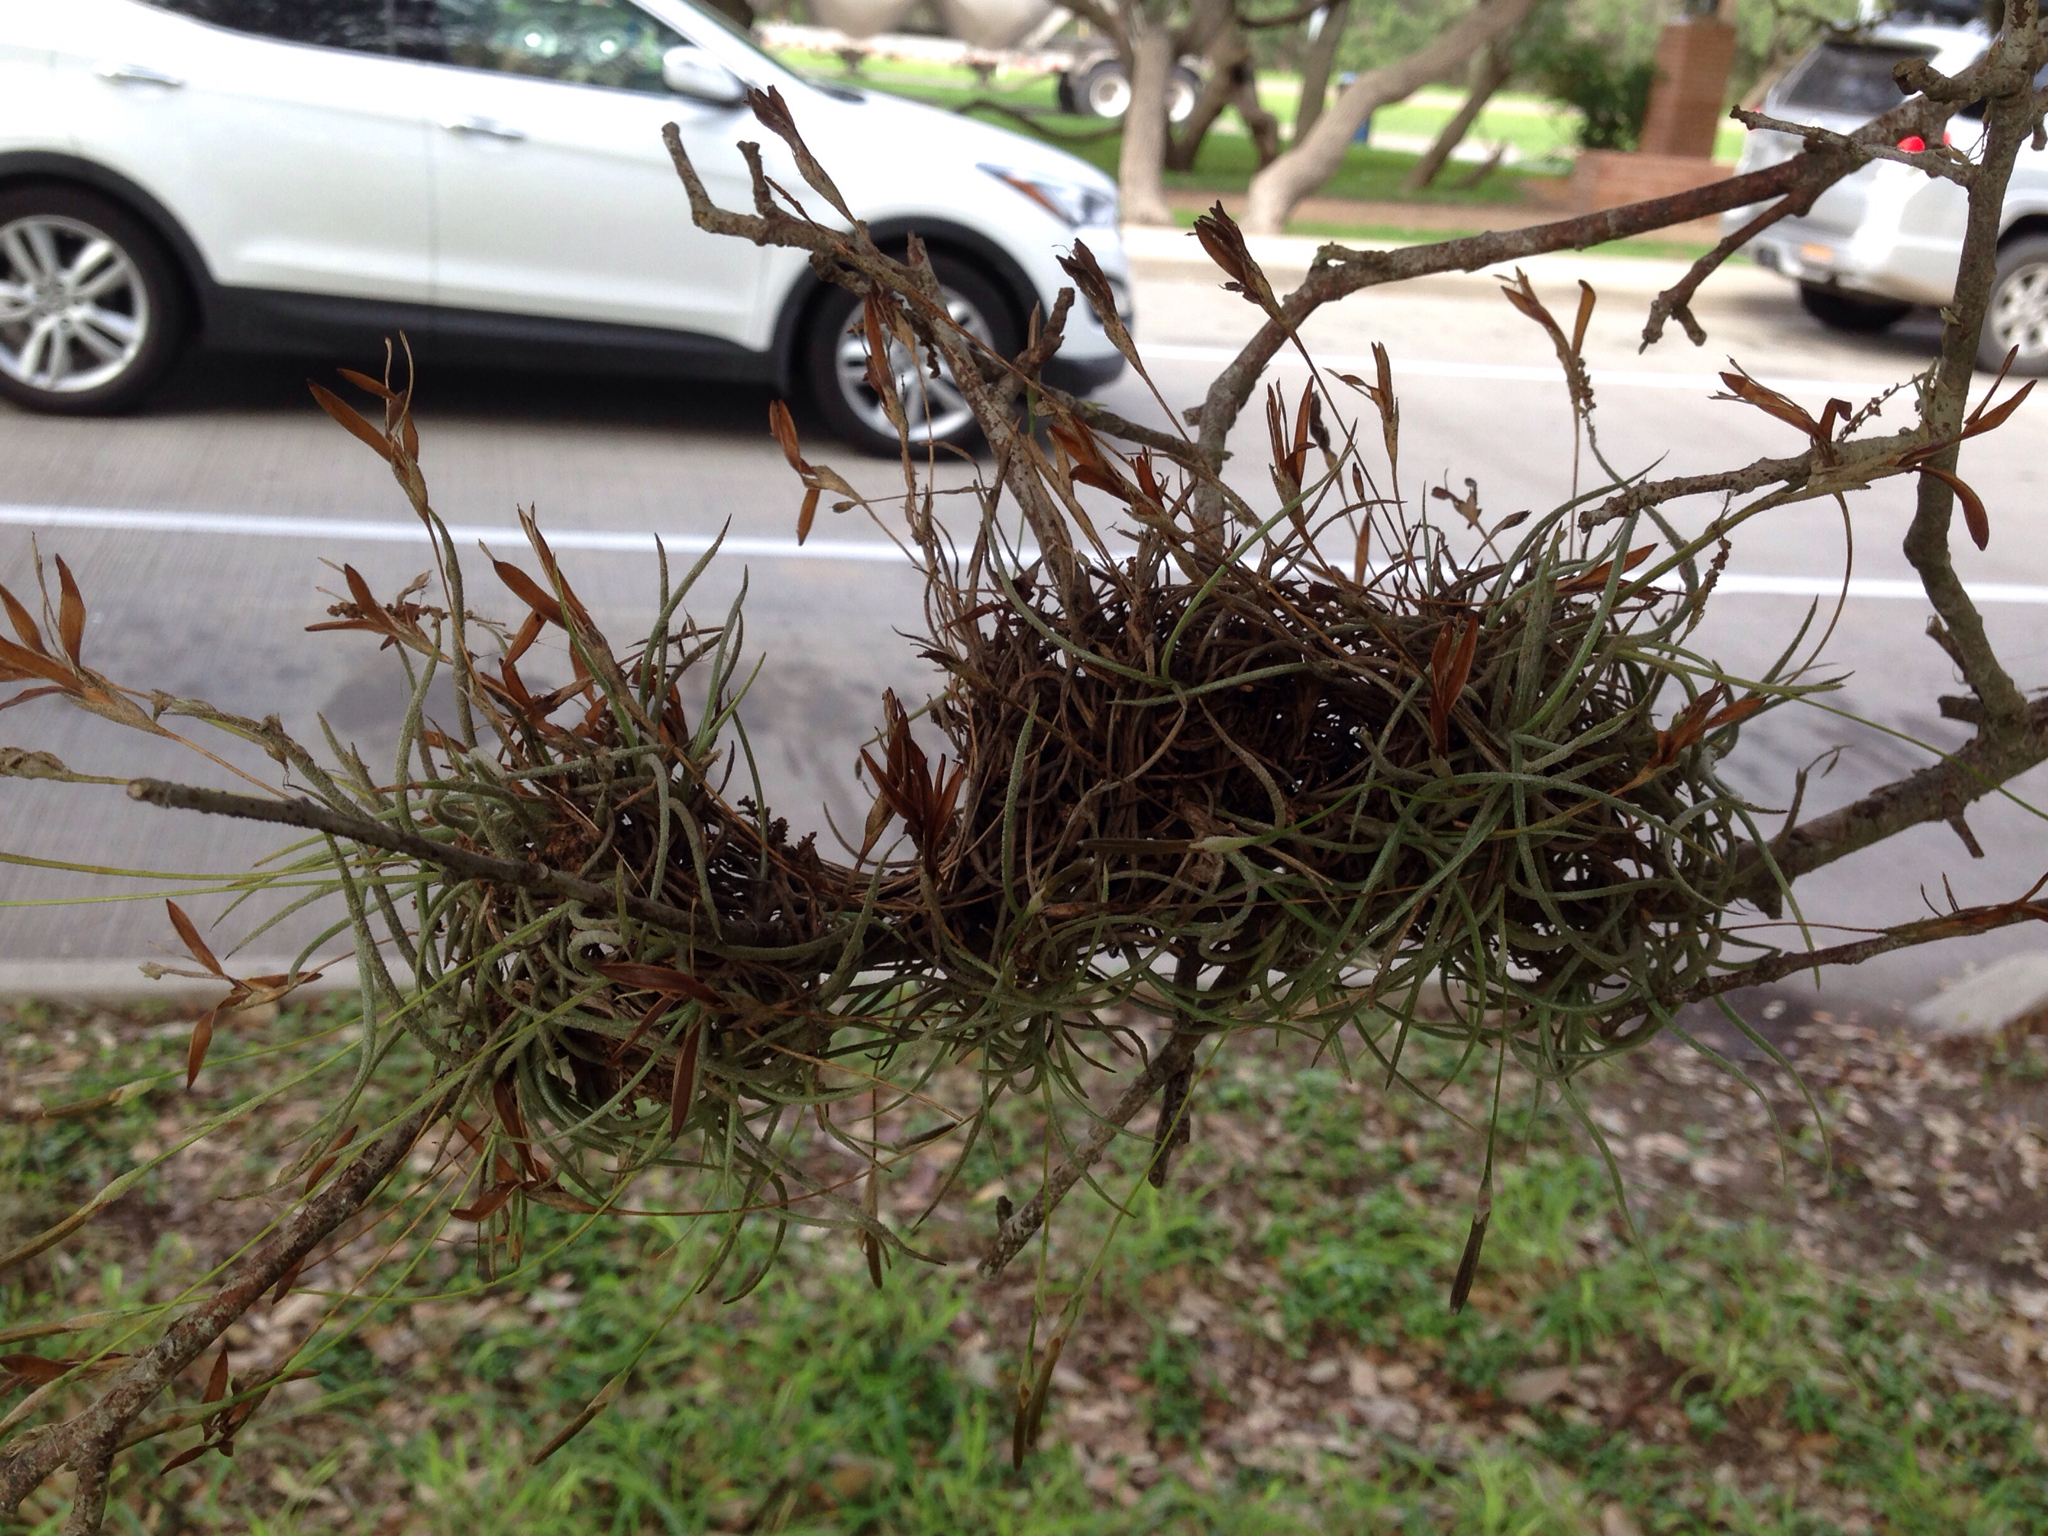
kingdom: Plantae
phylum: Tracheophyta
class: Liliopsida
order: Poales
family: Bromeliaceae
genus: Tillandsia
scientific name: Tillandsia recurvata
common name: Small ballmoss
